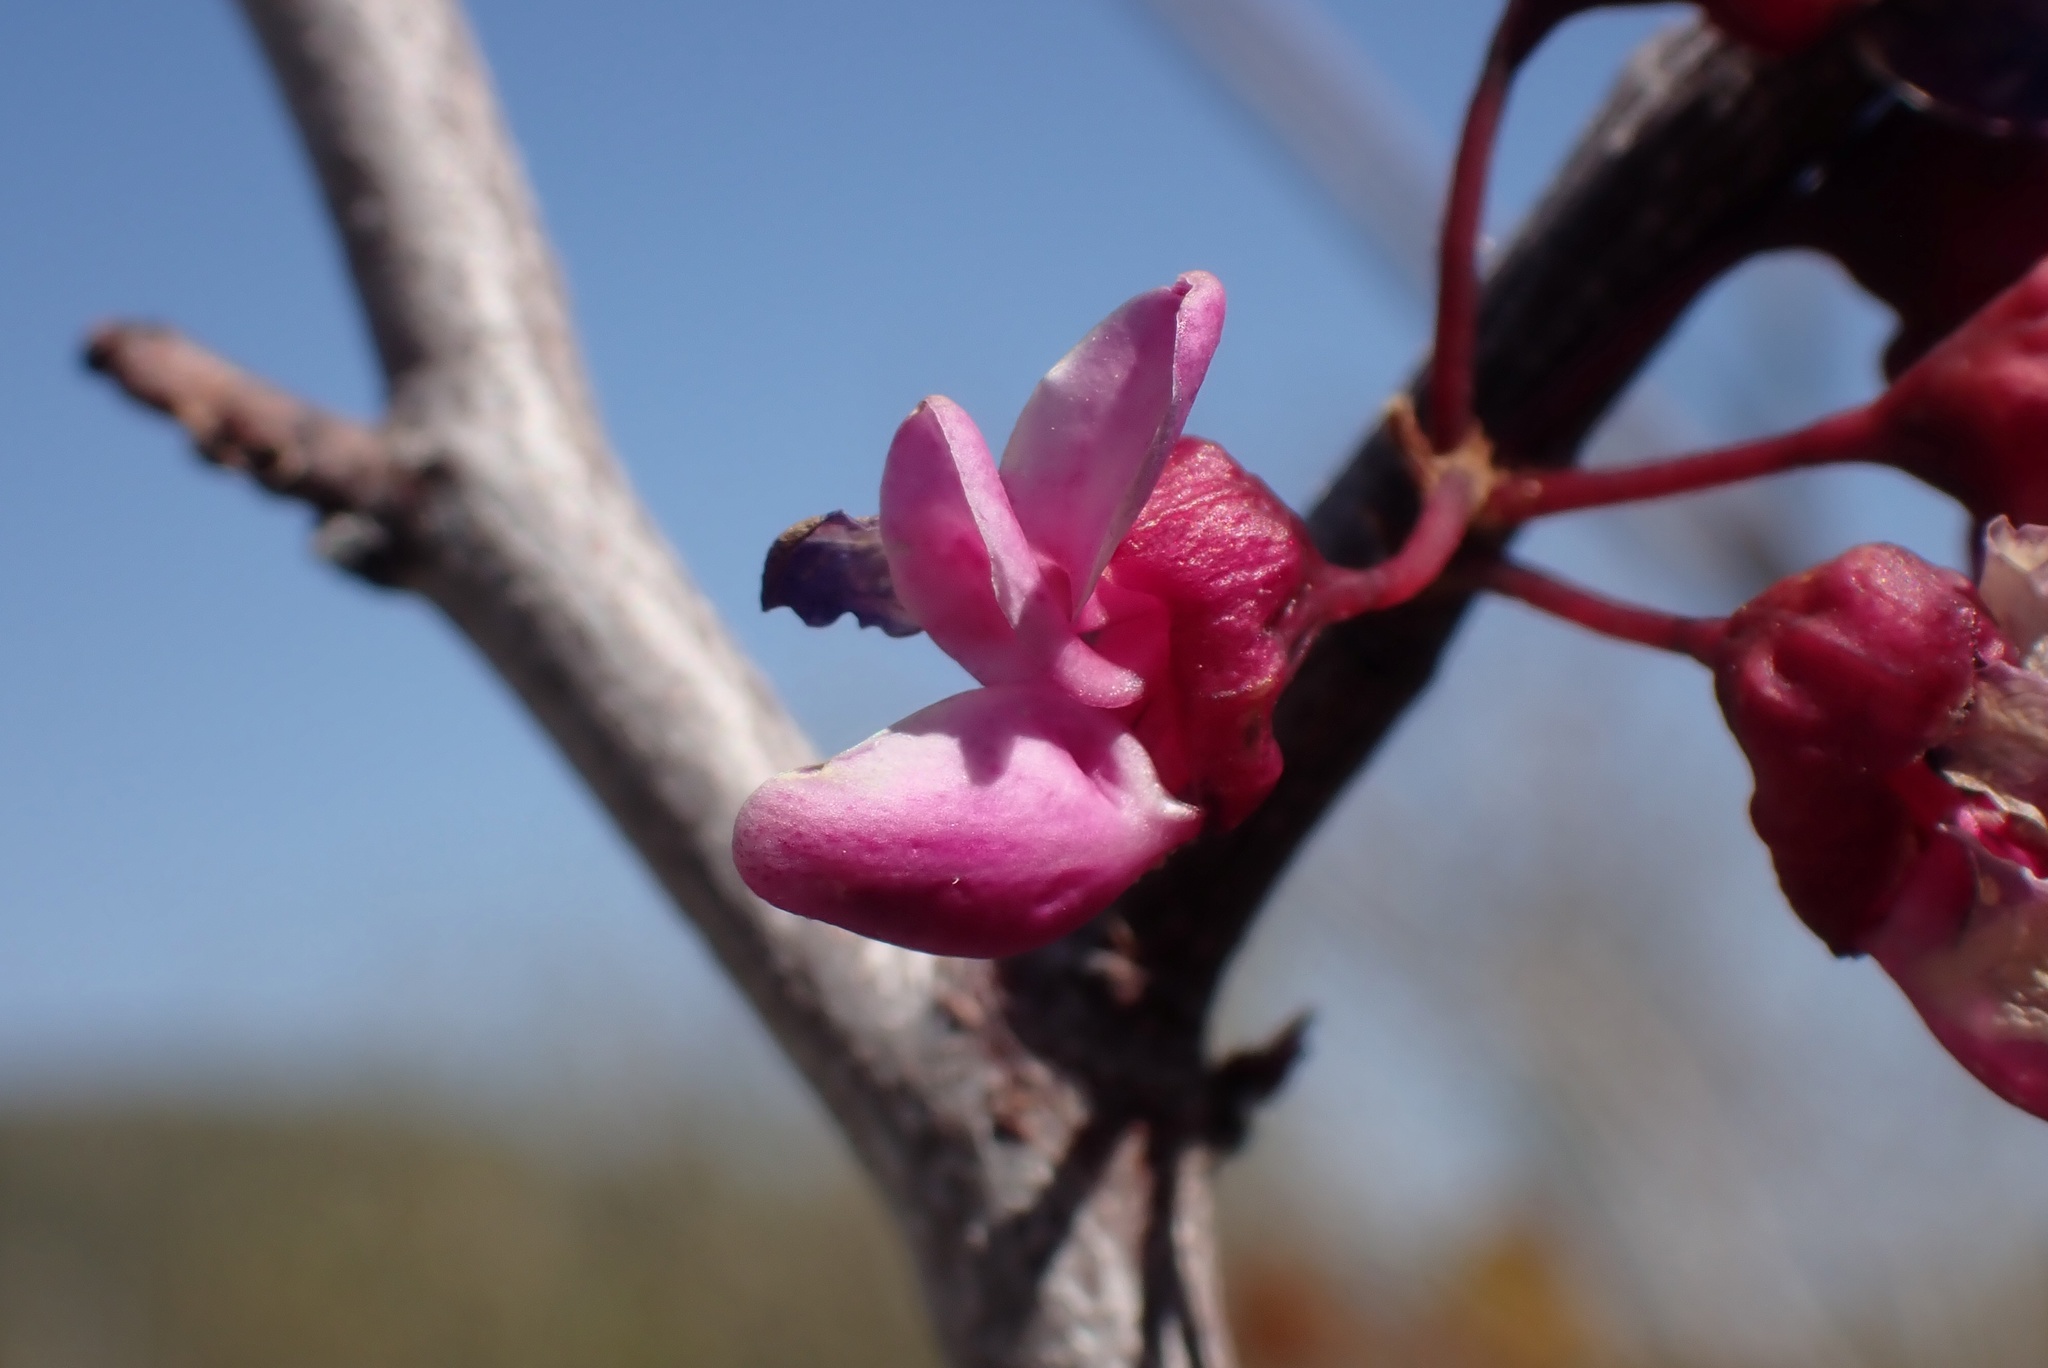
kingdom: Plantae
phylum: Tracheophyta
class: Magnoliopsida
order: Fabales
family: Fabaceae
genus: Cercis
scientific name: Cercis occidentalis
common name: California redbud
